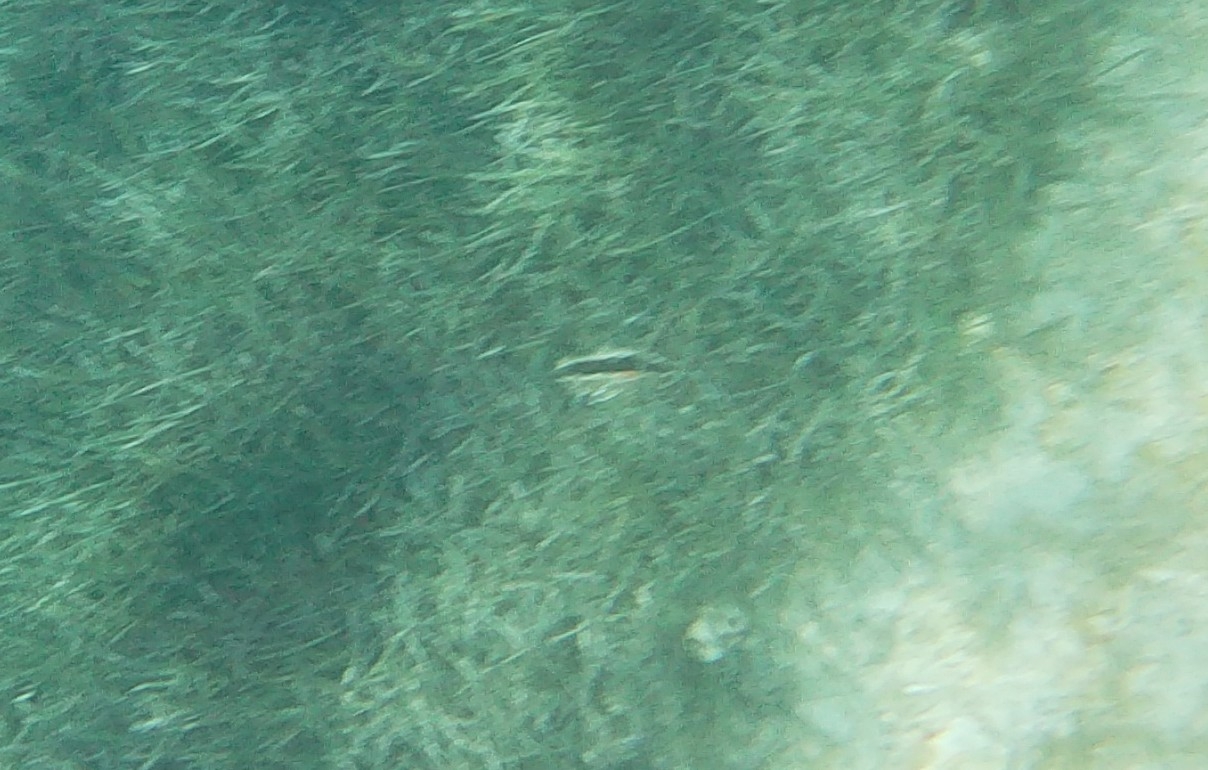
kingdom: Animalia
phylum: Mollusca
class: Bivalvia
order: Ostreida
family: Pinnidae
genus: Pinna
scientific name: Pinna nobilis
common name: Fan mussel
